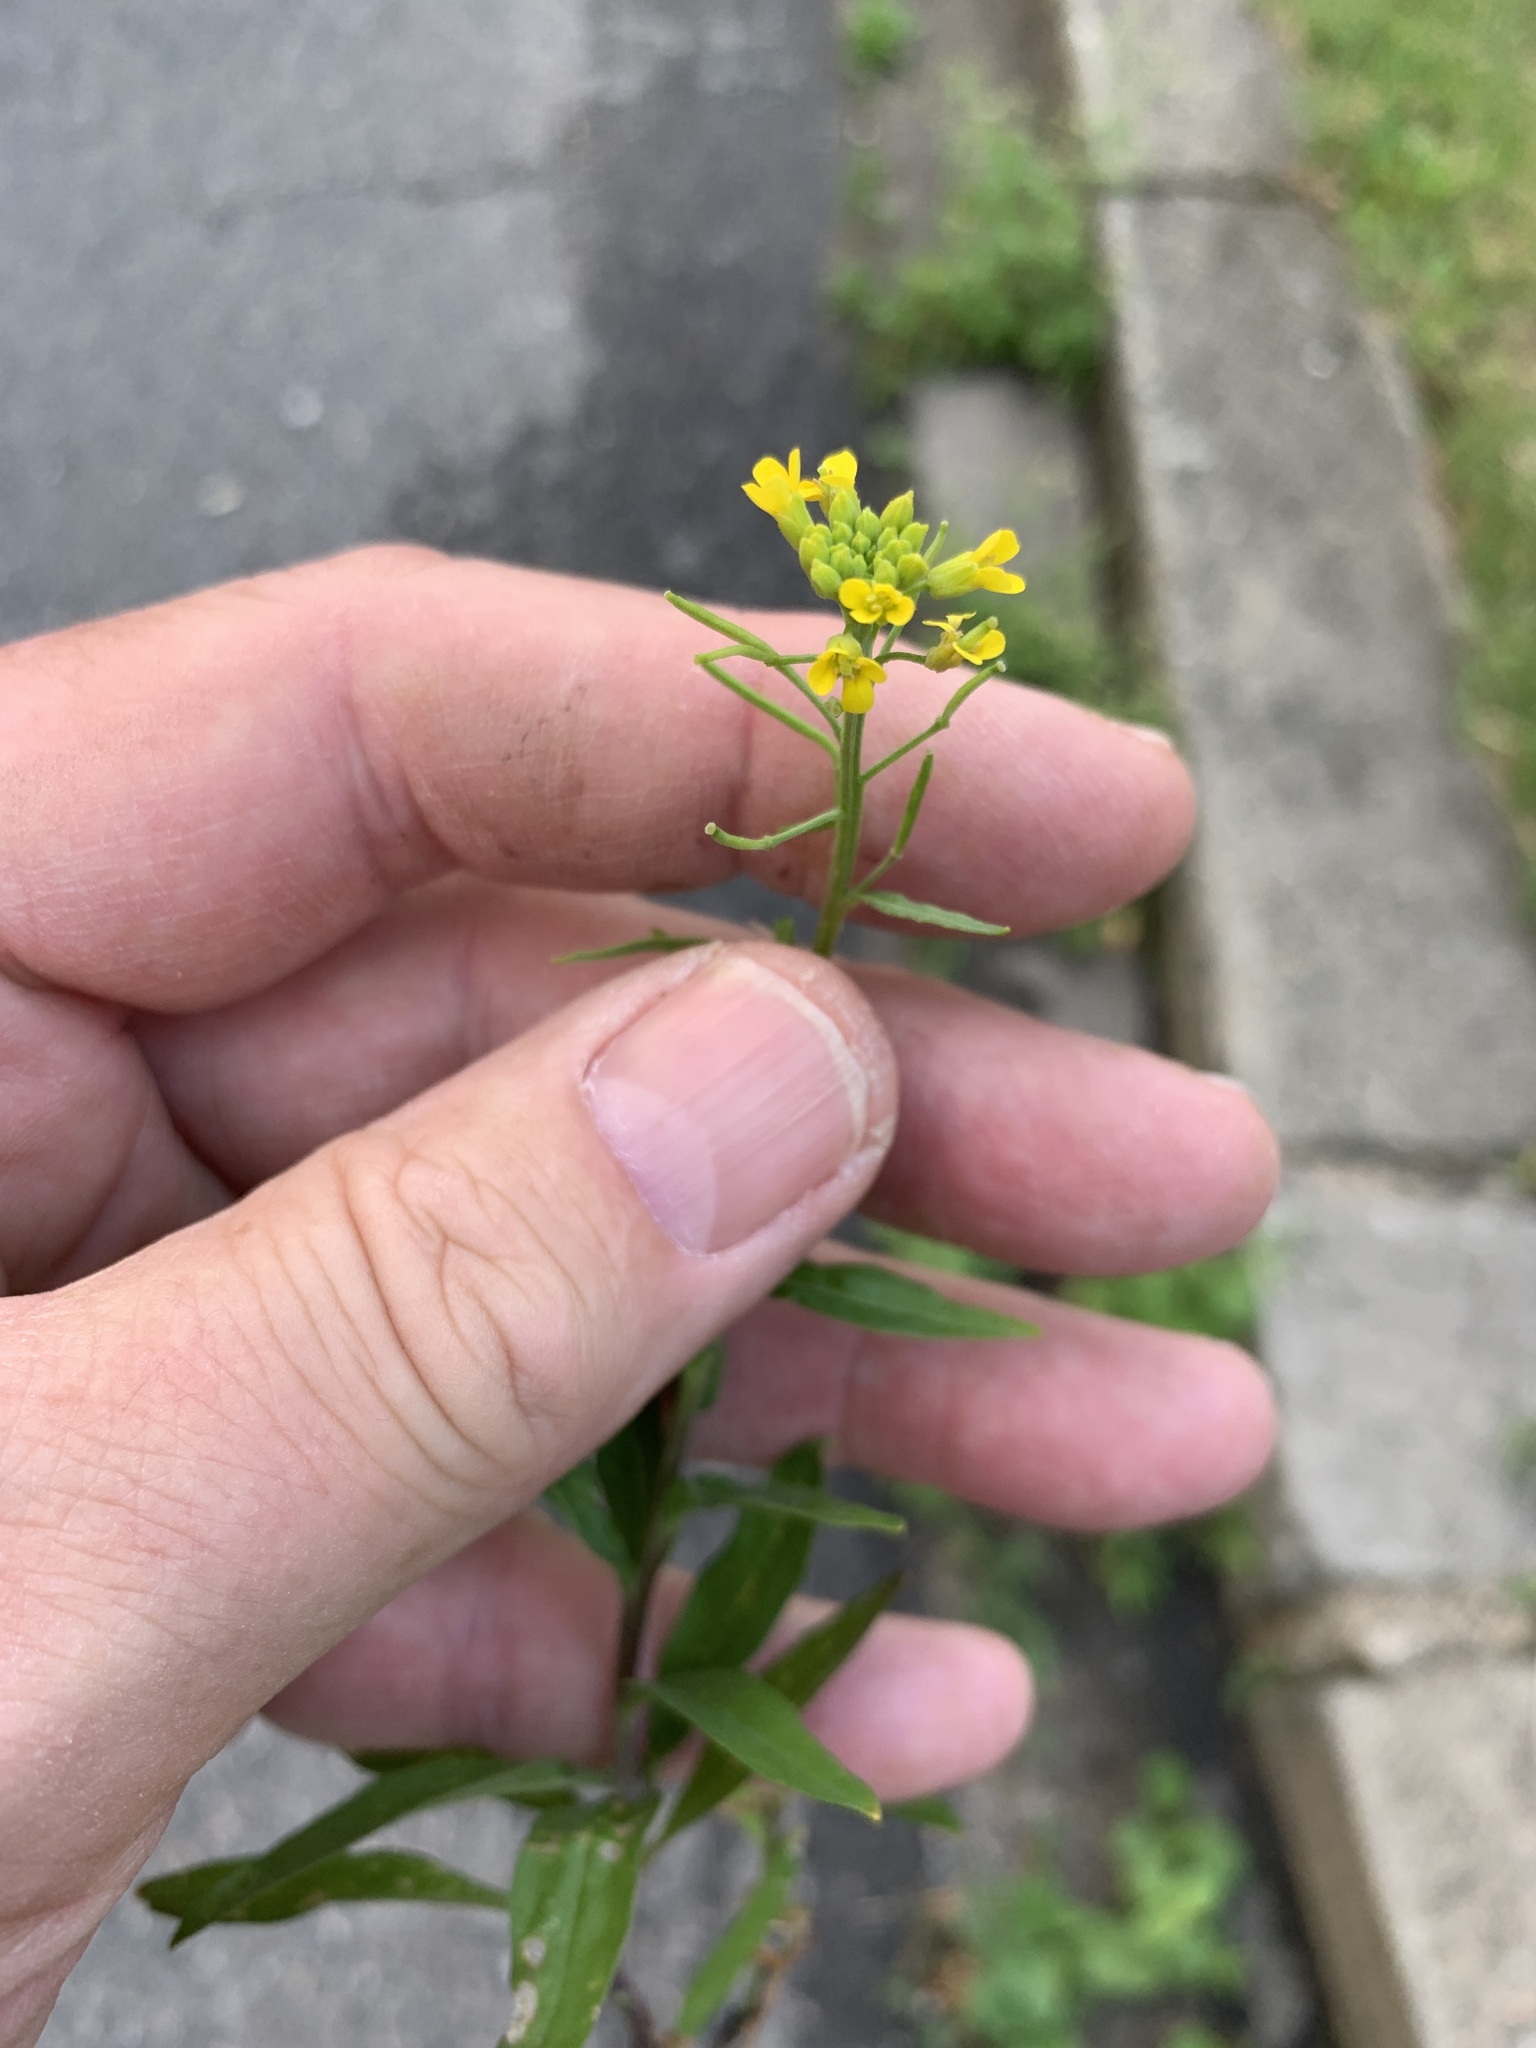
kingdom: Plantae
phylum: Tracheophyta
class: Magnoliopsida
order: Brassicales
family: Brassicaceae
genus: Erysimum
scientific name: Erysimum cheiranthoides
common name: Treacle mustard
